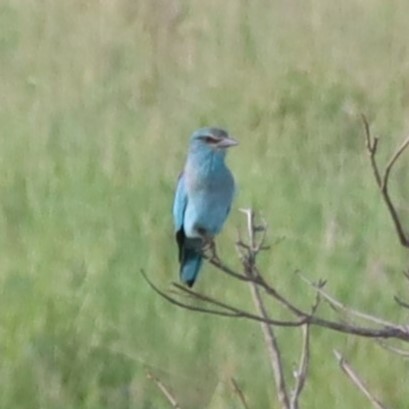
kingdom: Animalia
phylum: Chordata
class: Aves
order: Coraciiformes
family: Coraciidae
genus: Coracias
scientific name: Coracias garrulus
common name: European roller
